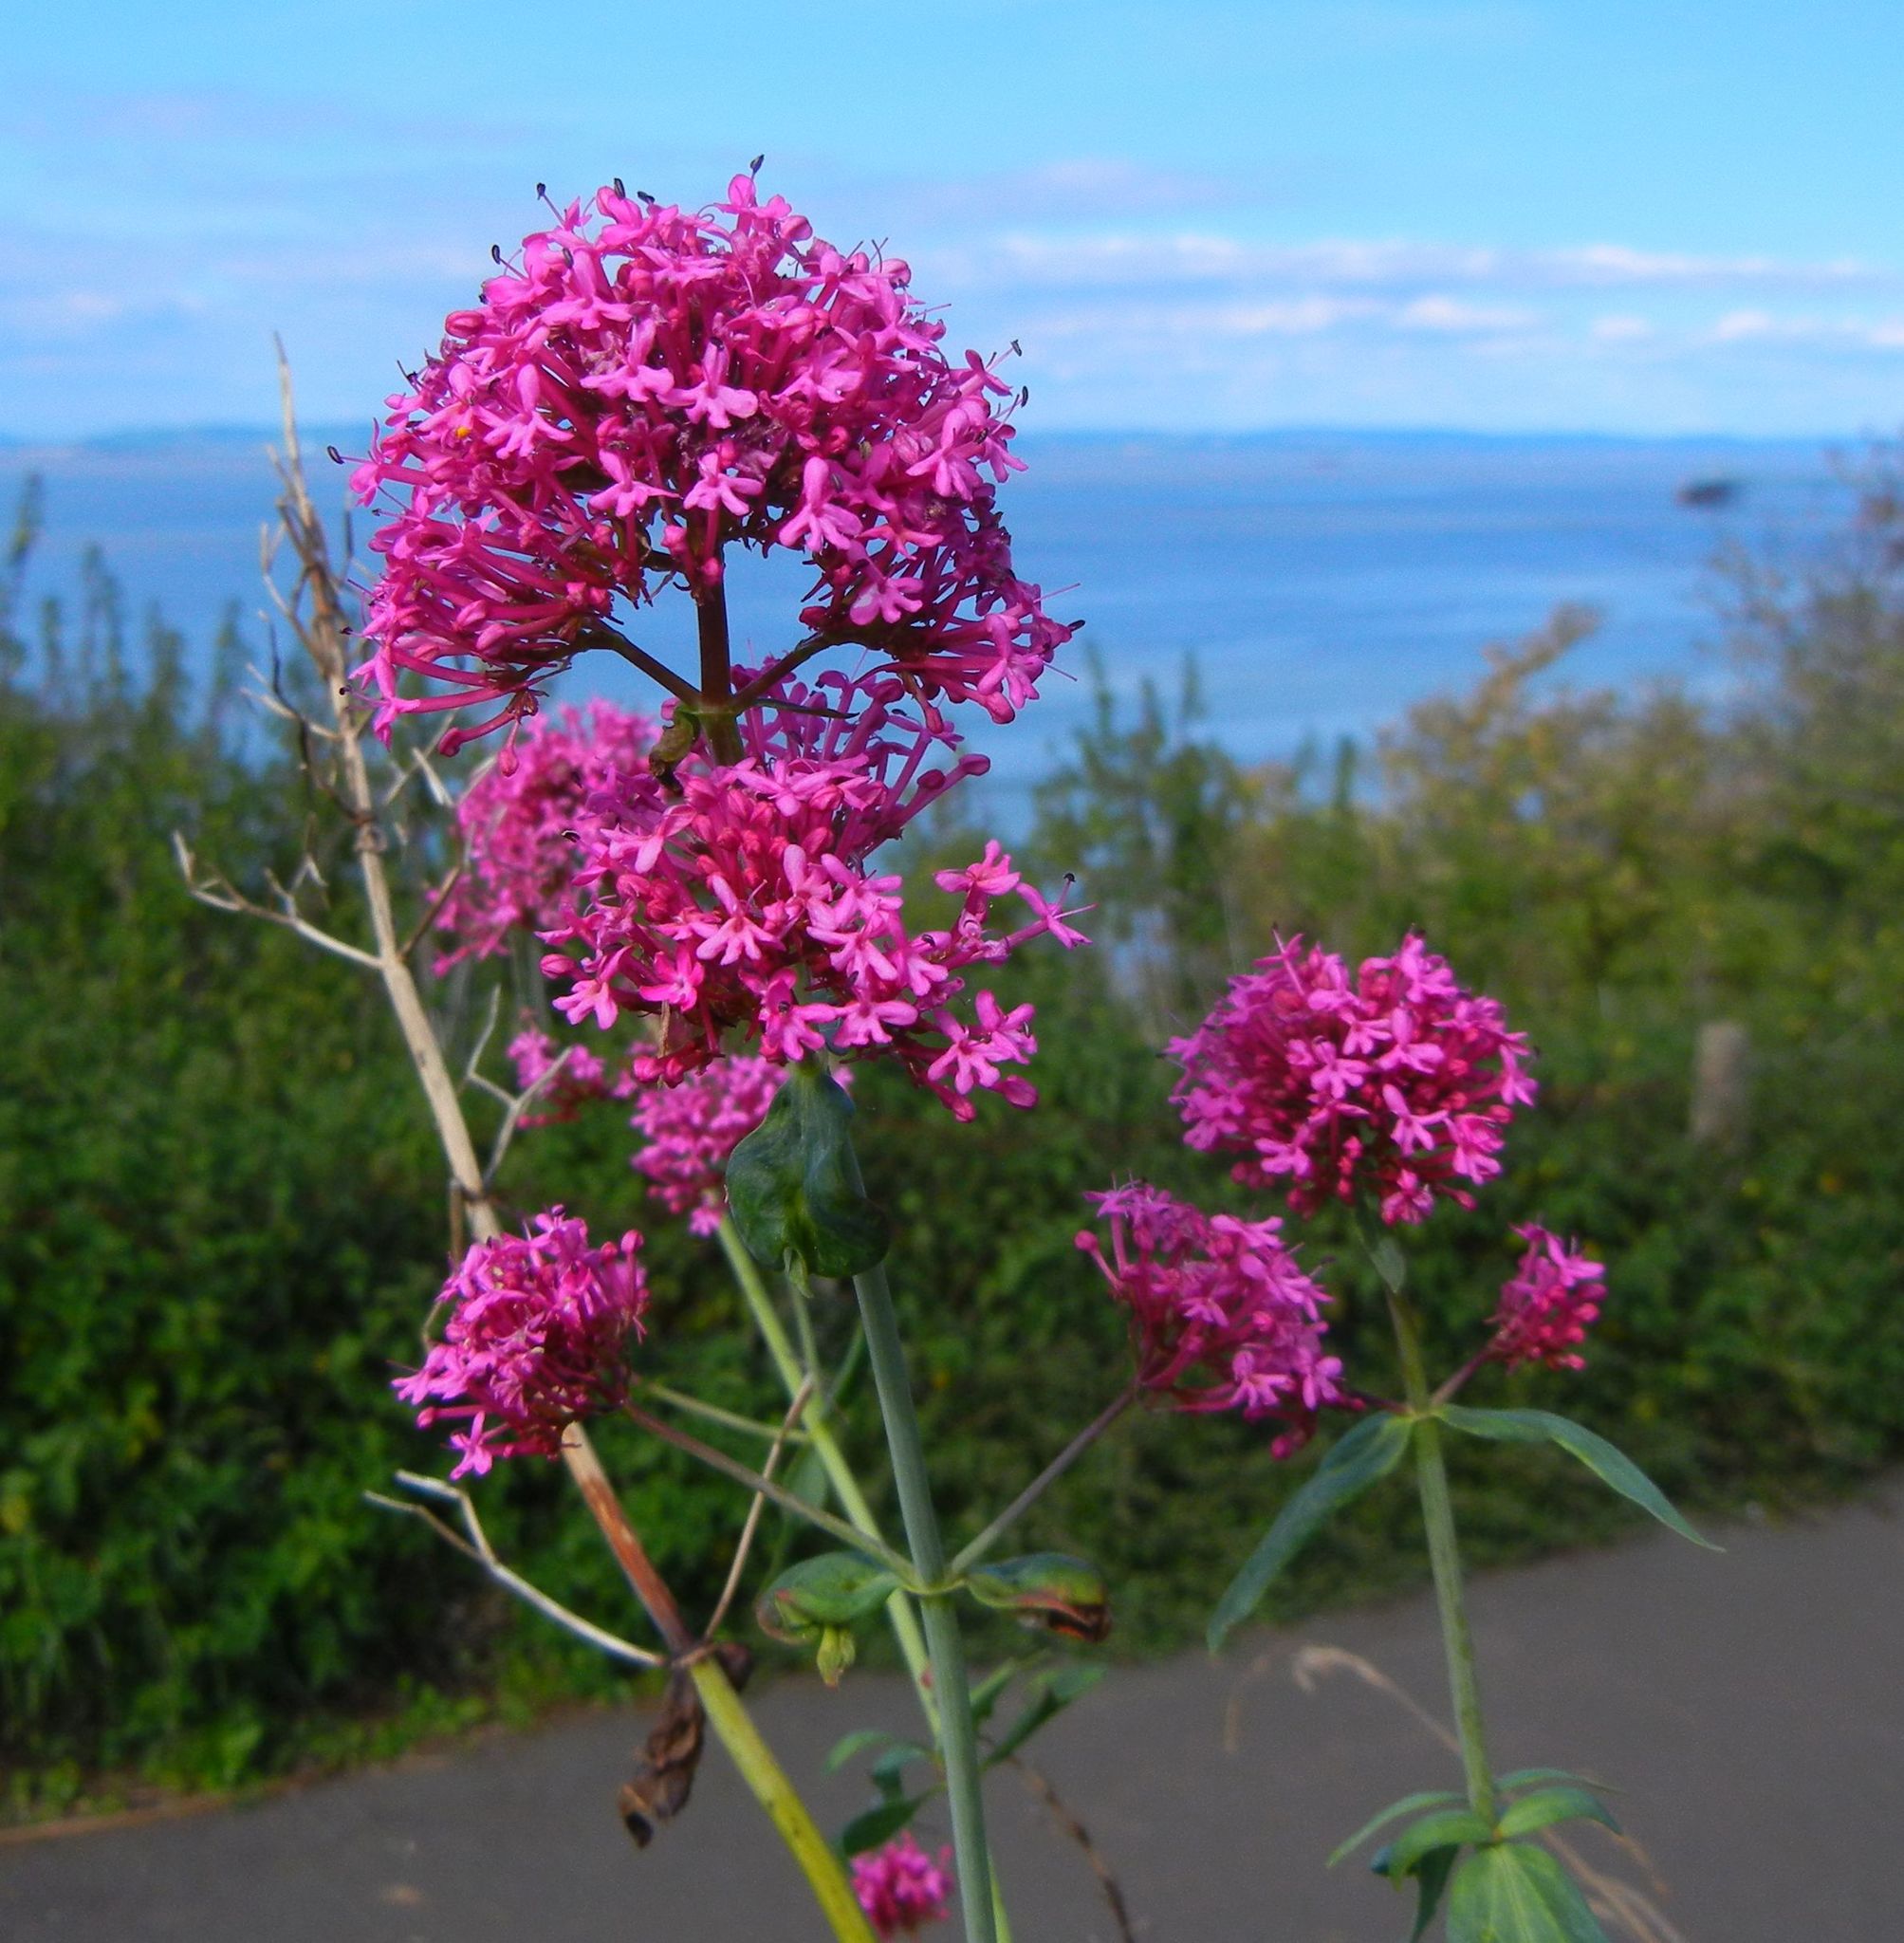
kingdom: Plantae
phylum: Tracheophyta
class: Magnoliopsida
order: Dipsacales
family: Caprifoliaceae
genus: Centranthus
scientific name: Centranthus ruber
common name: Red valerian
